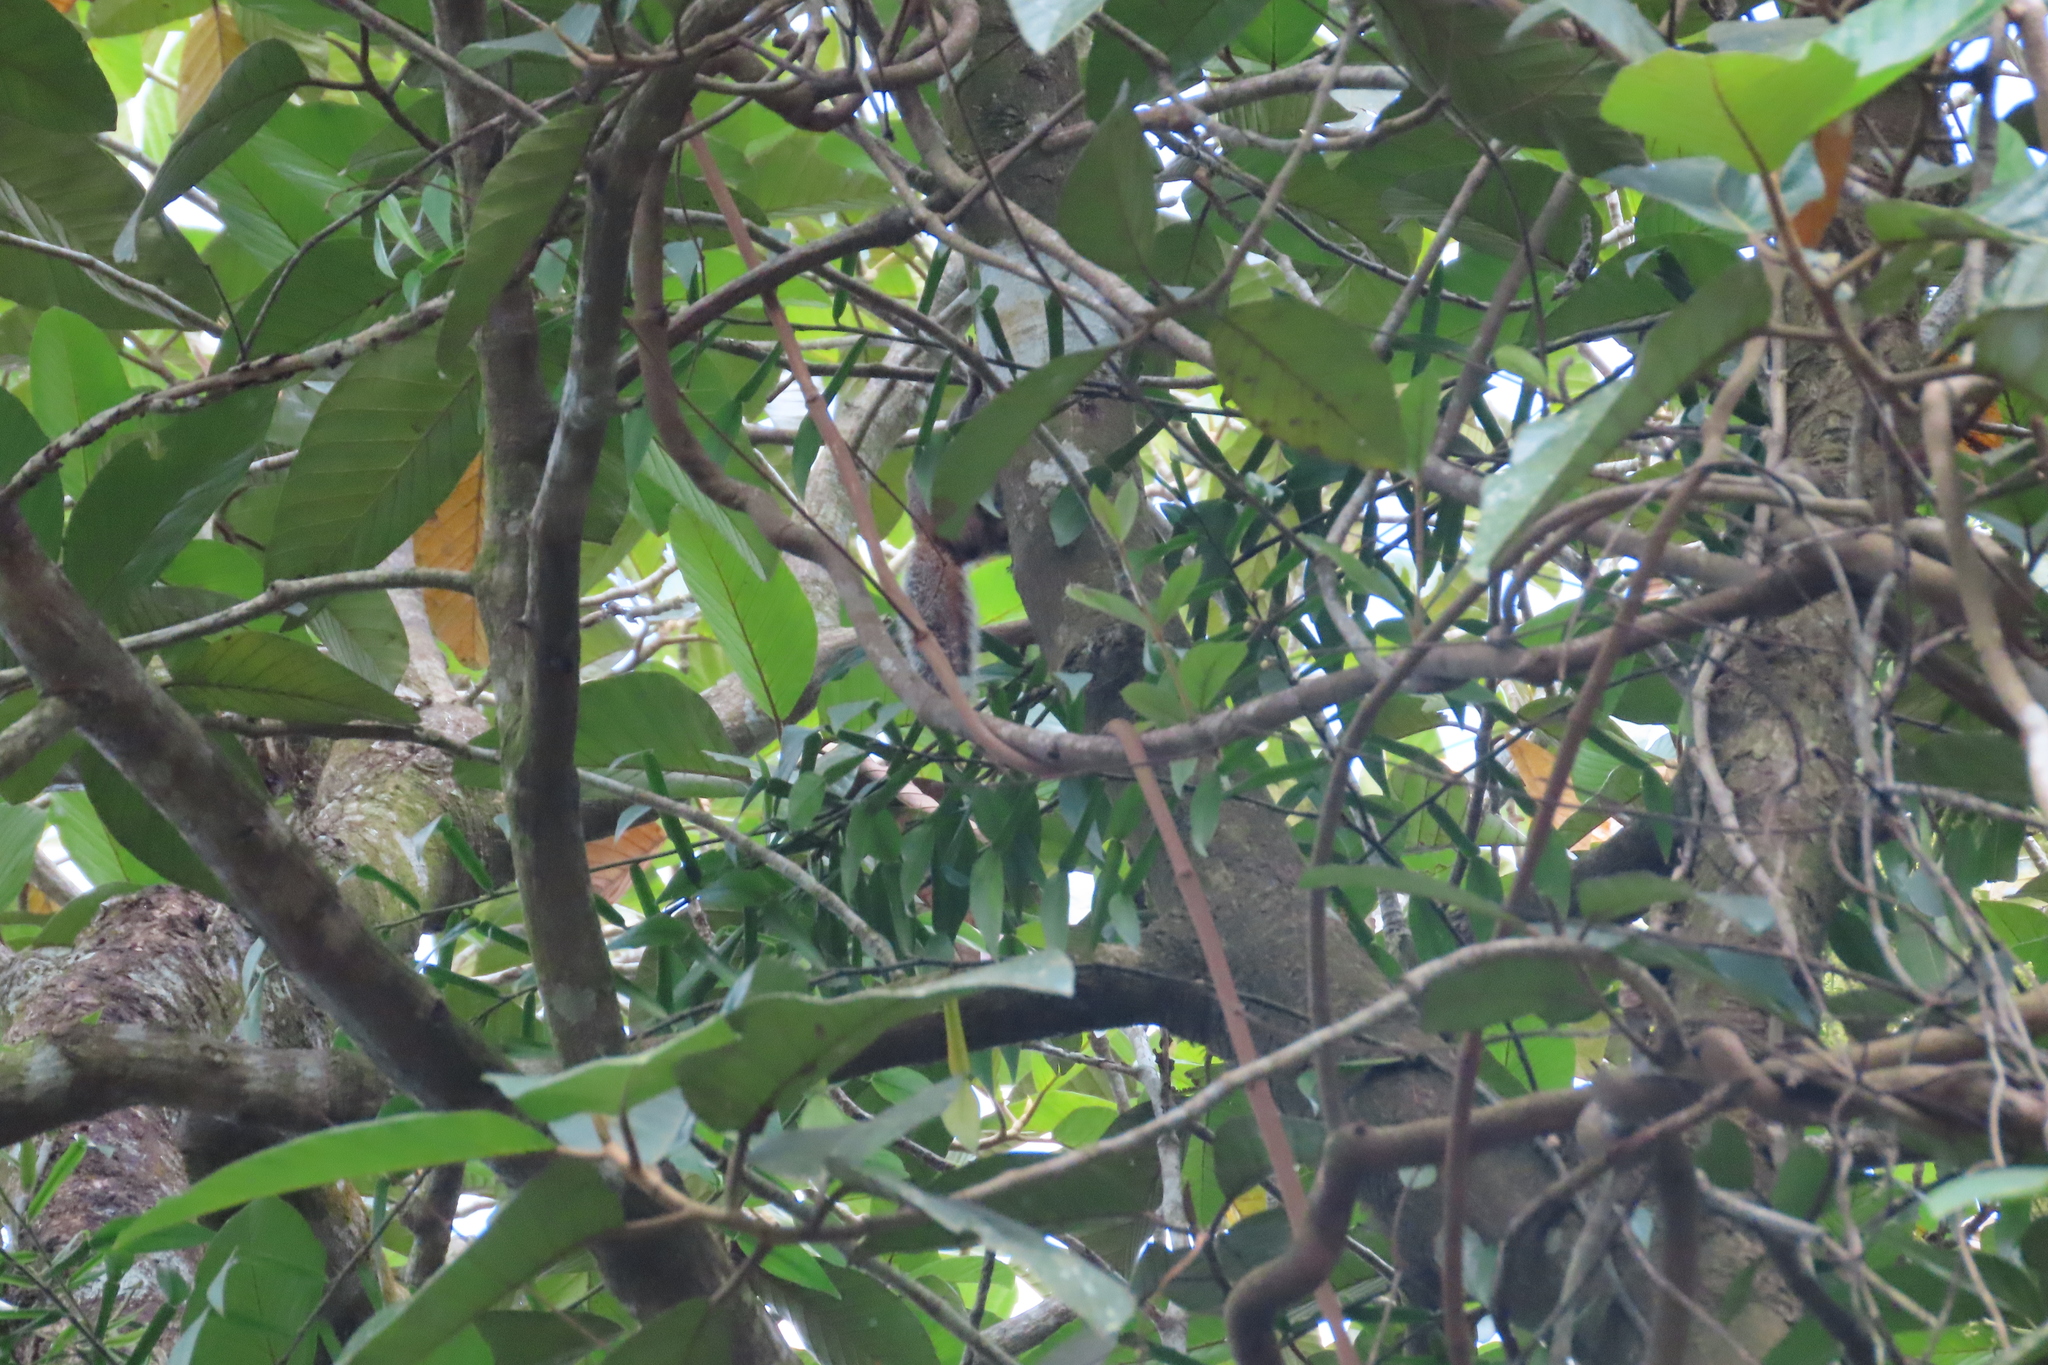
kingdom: Animalia
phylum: Chordata
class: Mammalia
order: Rodentia
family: Sciuridae
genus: Funambulus
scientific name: Funambulus tristriatus
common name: Jungle palm squirrel
